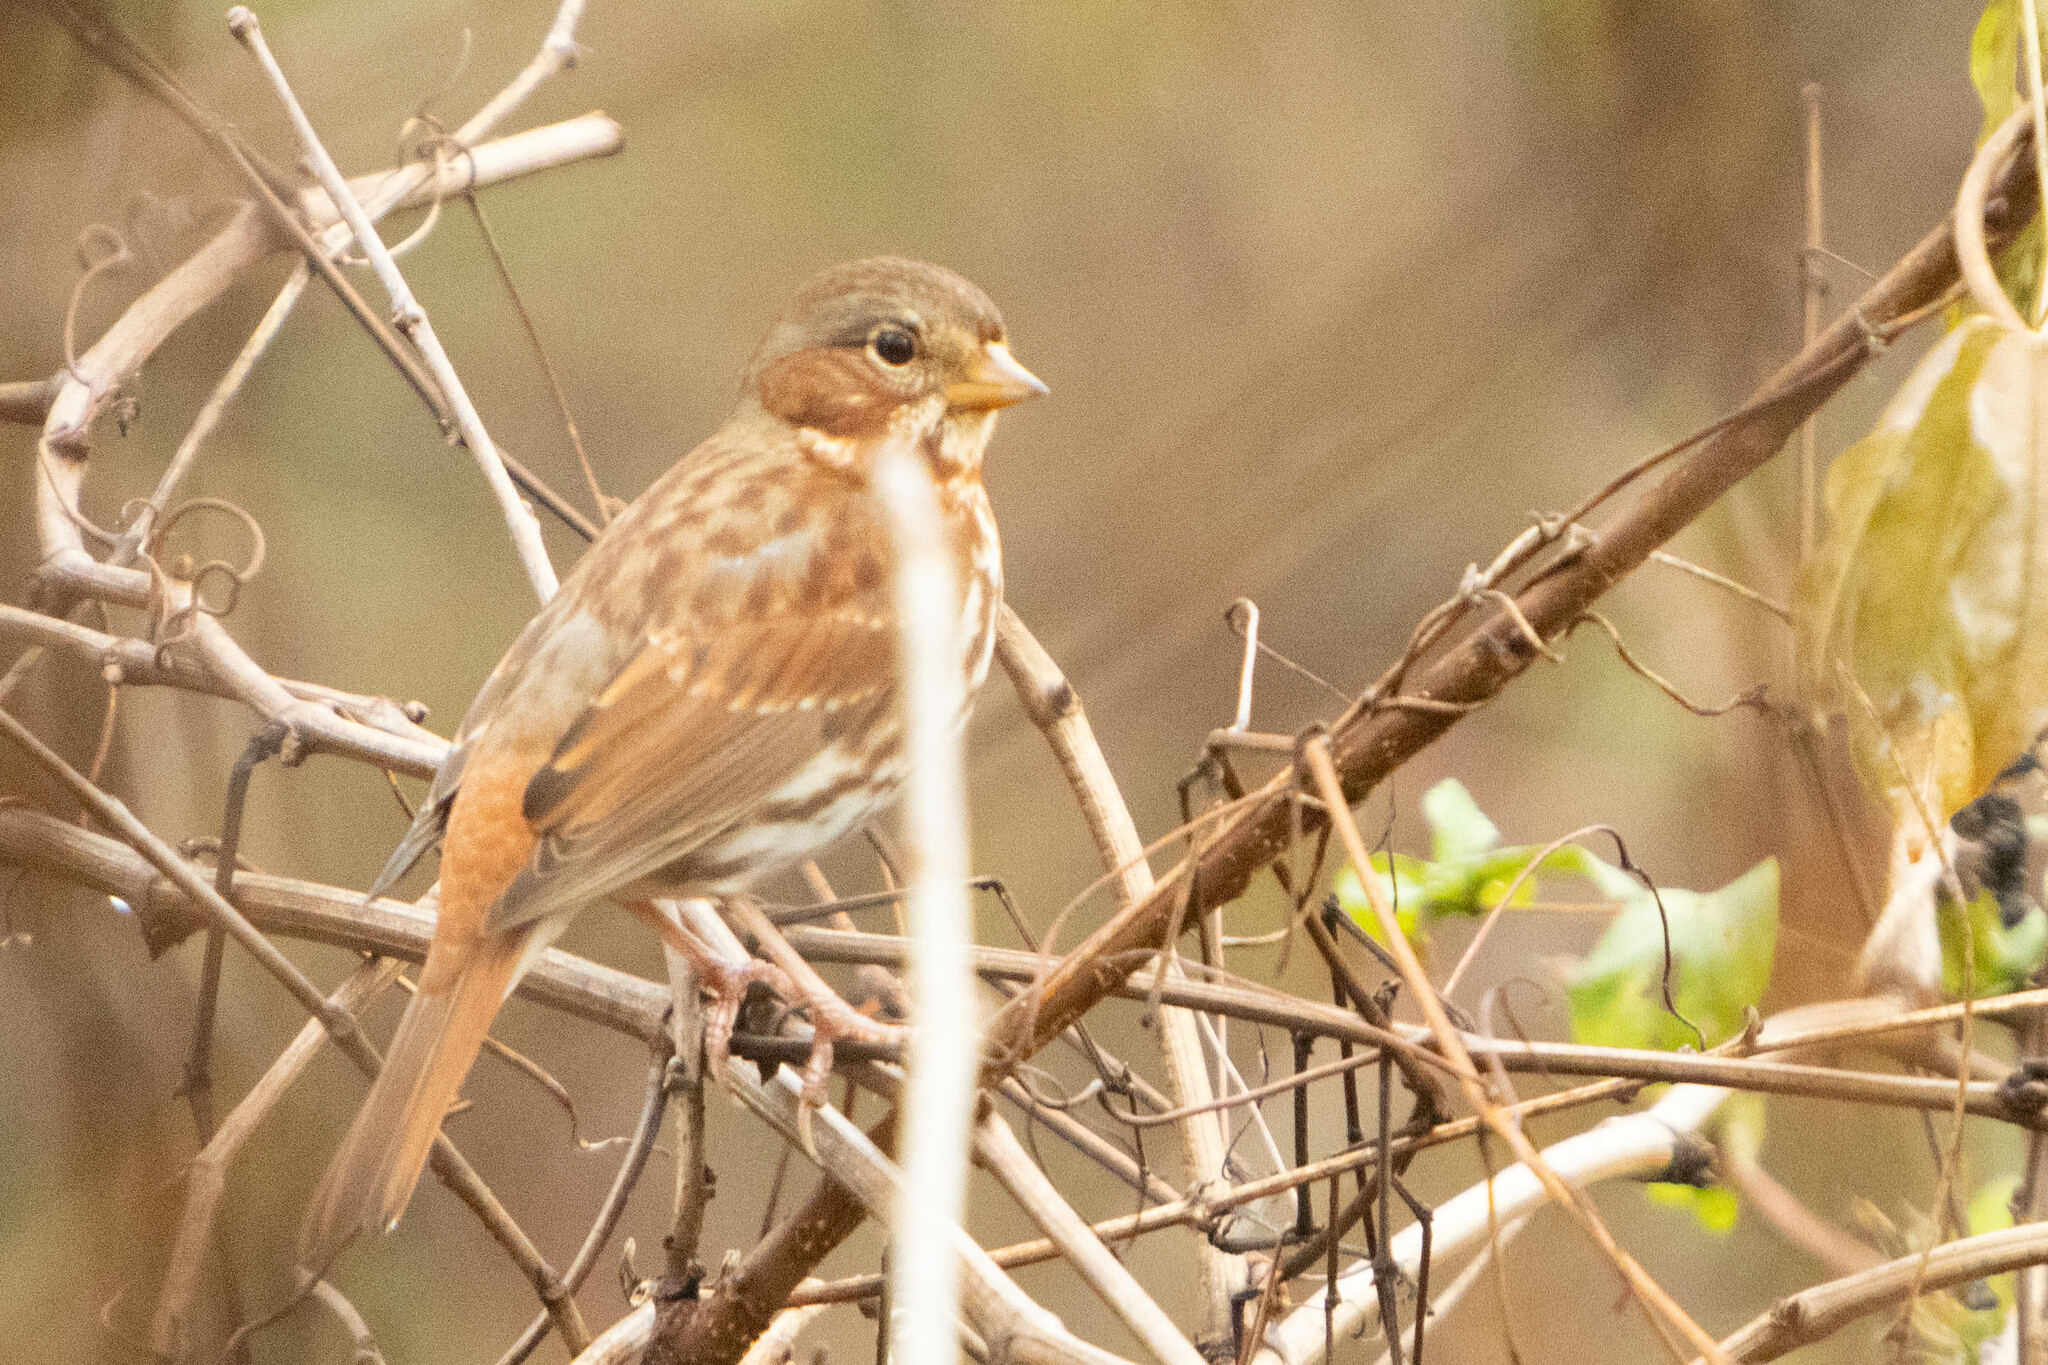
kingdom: Animalia
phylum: Chordata
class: Aves
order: Passeriformes
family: Passerellidae
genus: Passerella
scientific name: Passerella iliaca
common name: Fox sparrow
